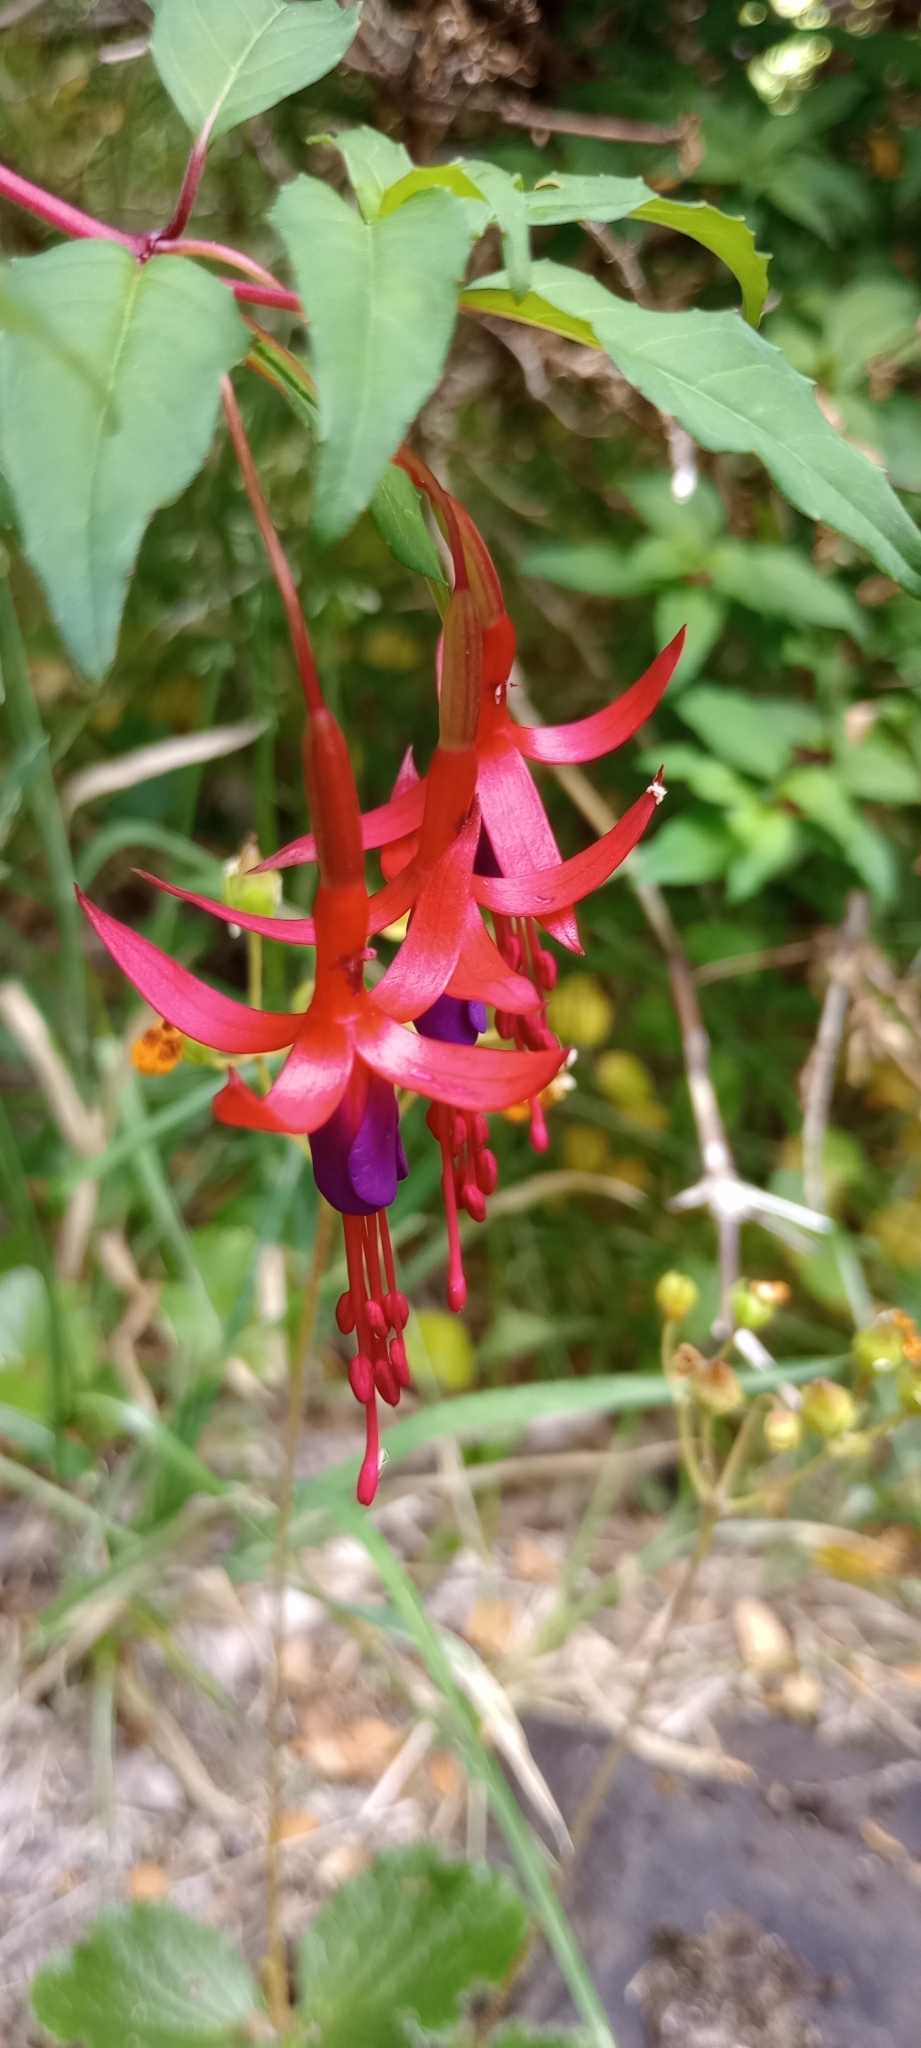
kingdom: Plantae
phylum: Tracheophyta
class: Magnoliopsida
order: Myrtales
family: Onagraceae
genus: Fuchsia
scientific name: Fuchsia magellanica
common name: Hardy fuchsia
